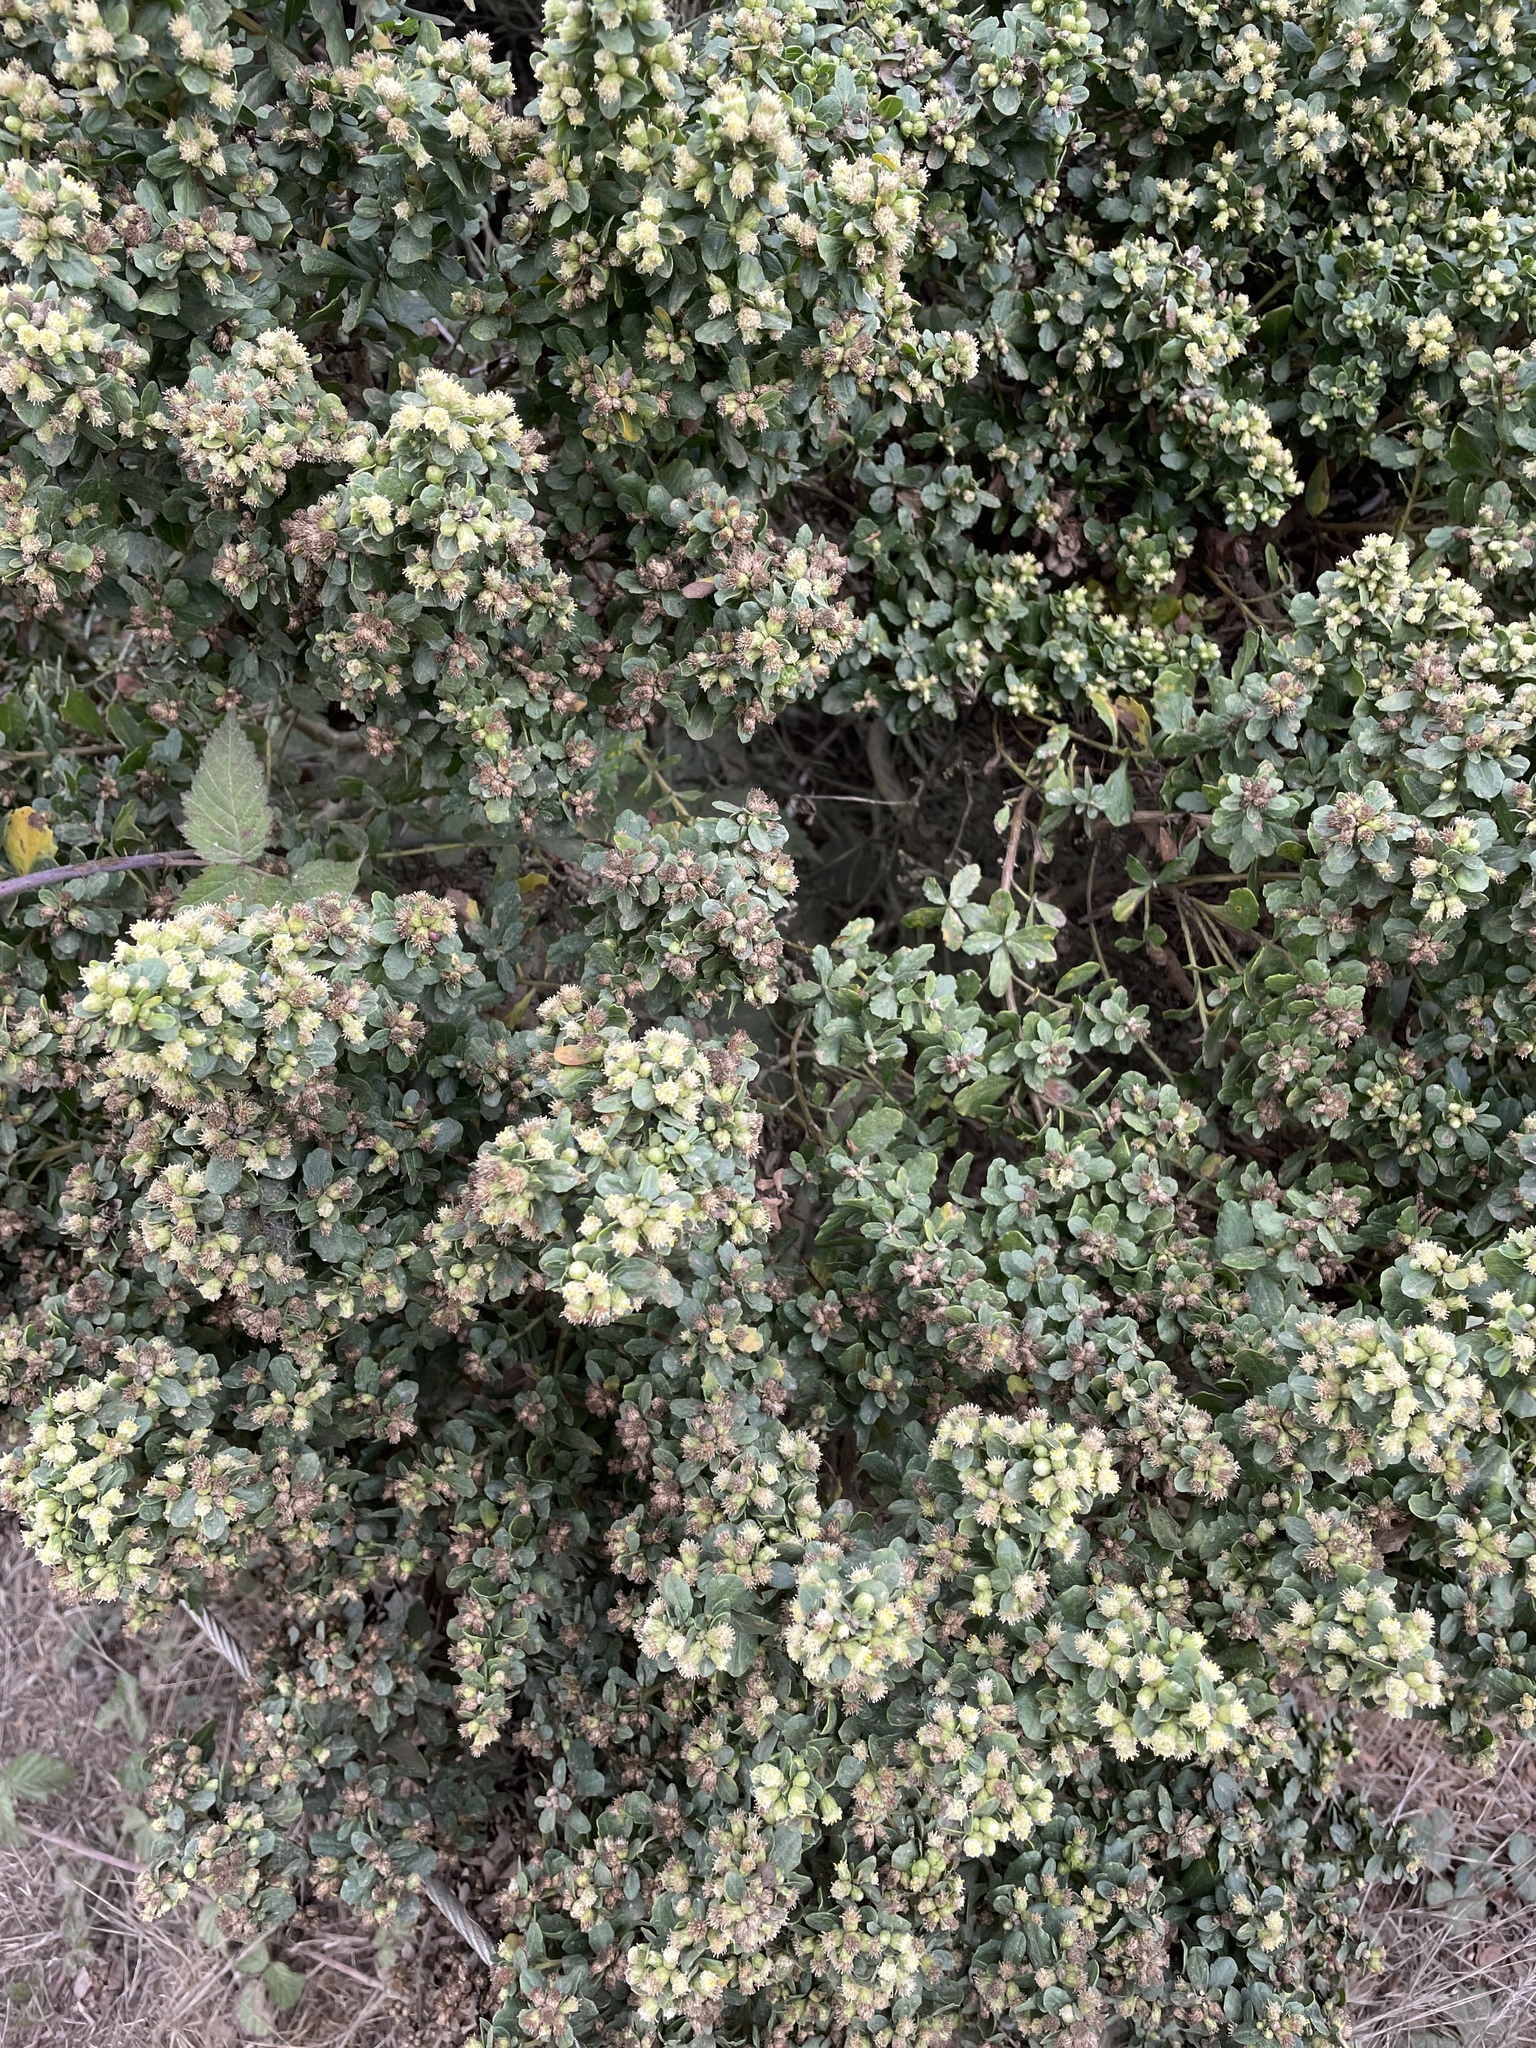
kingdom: Plantae
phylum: Tracheophyta
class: Magnoliopsida
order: Asterales
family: Asteraceae
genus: Baccharis
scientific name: Baccharis pilularis
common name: Coyotebrush
